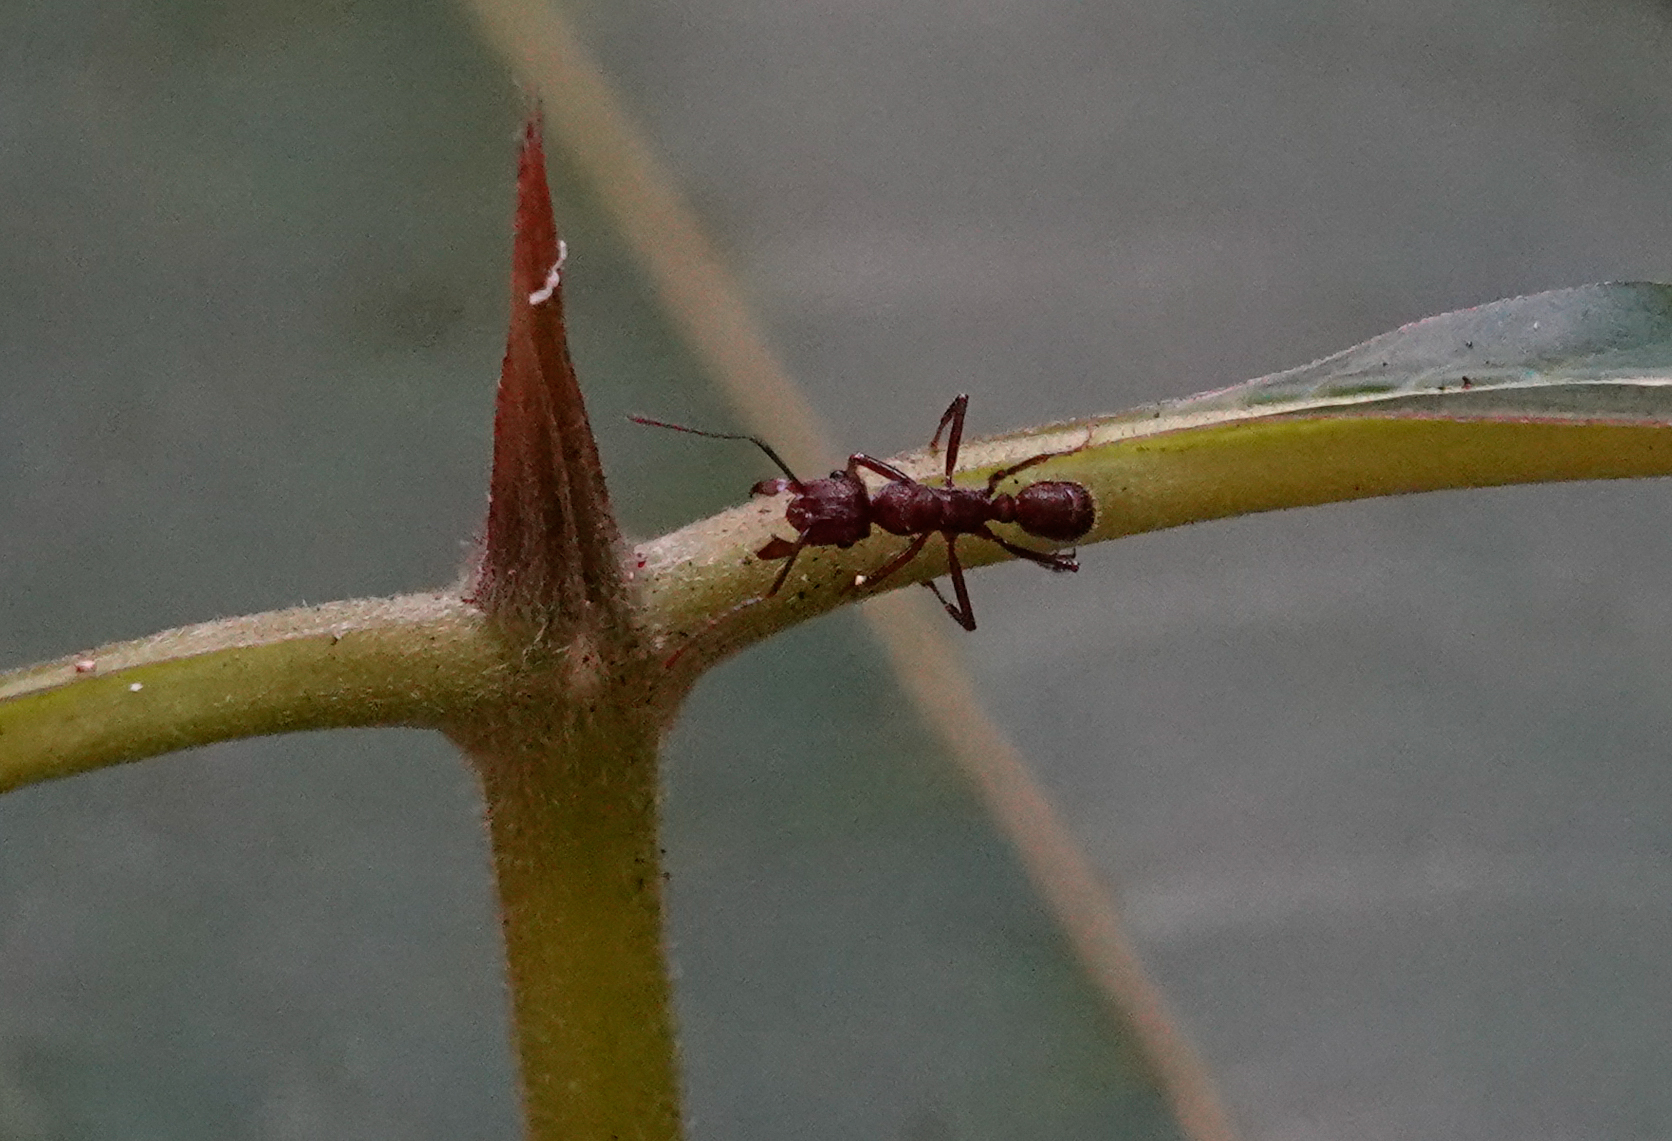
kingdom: Animalia
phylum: Arthropoda
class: Insecta
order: Hymenoptera
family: Formicidae
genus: Ectatomma
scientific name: Ectatomma tuberculatum
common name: Ant
